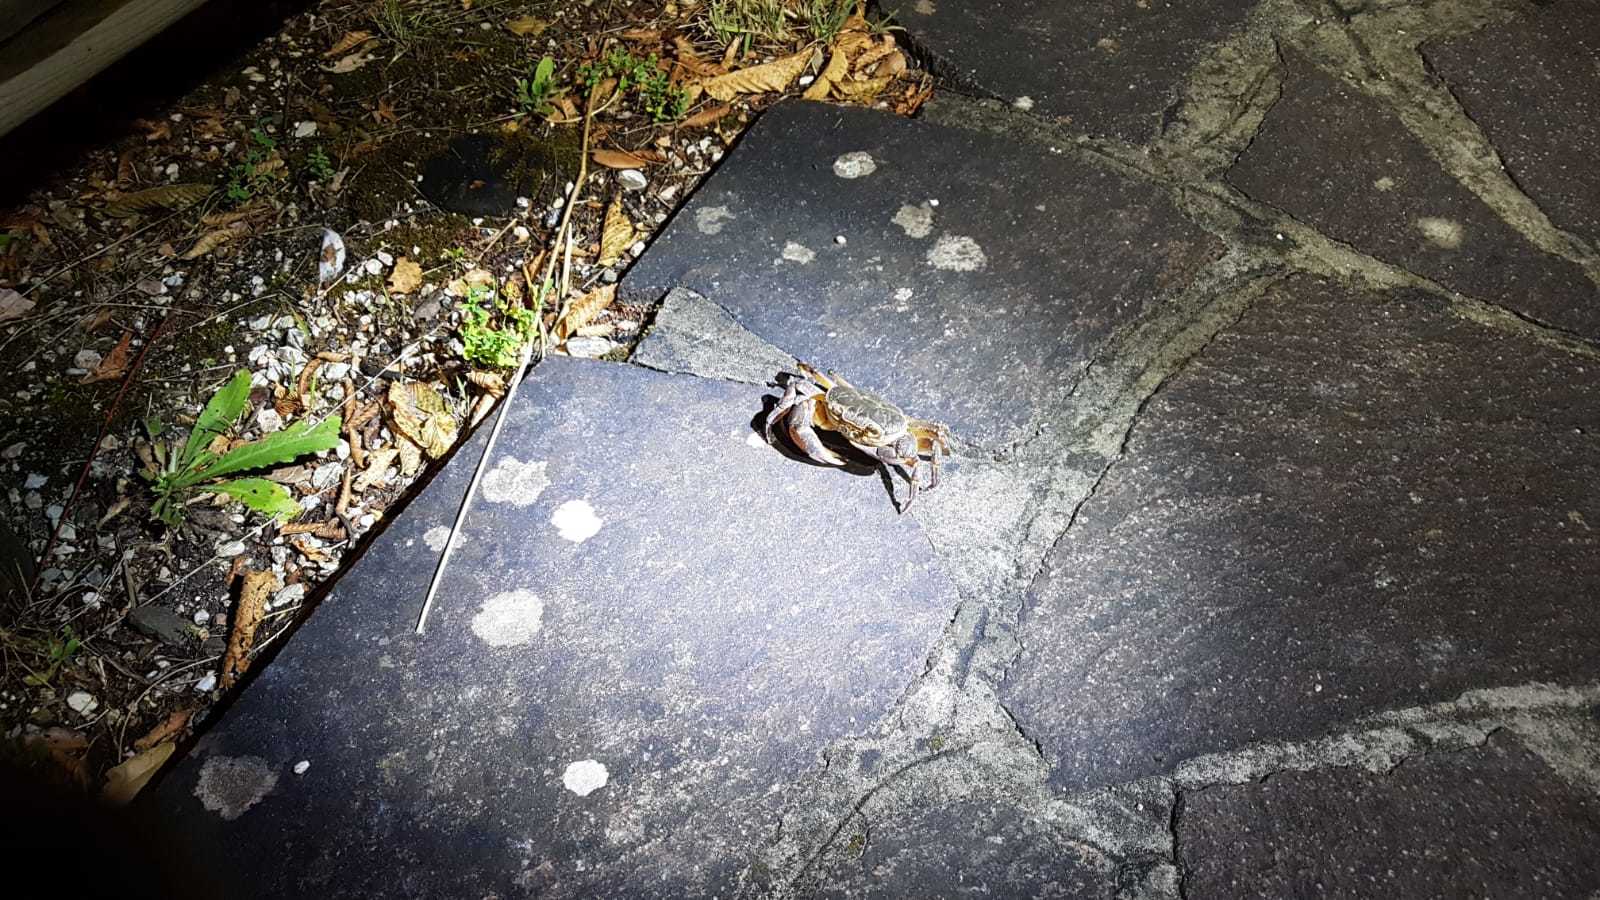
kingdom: Animalia
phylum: Arthropoda
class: Malacostraca
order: Decapoda
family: Potamidae
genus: Potamon
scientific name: Potamon fluviatile
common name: Italian freshwater crab
